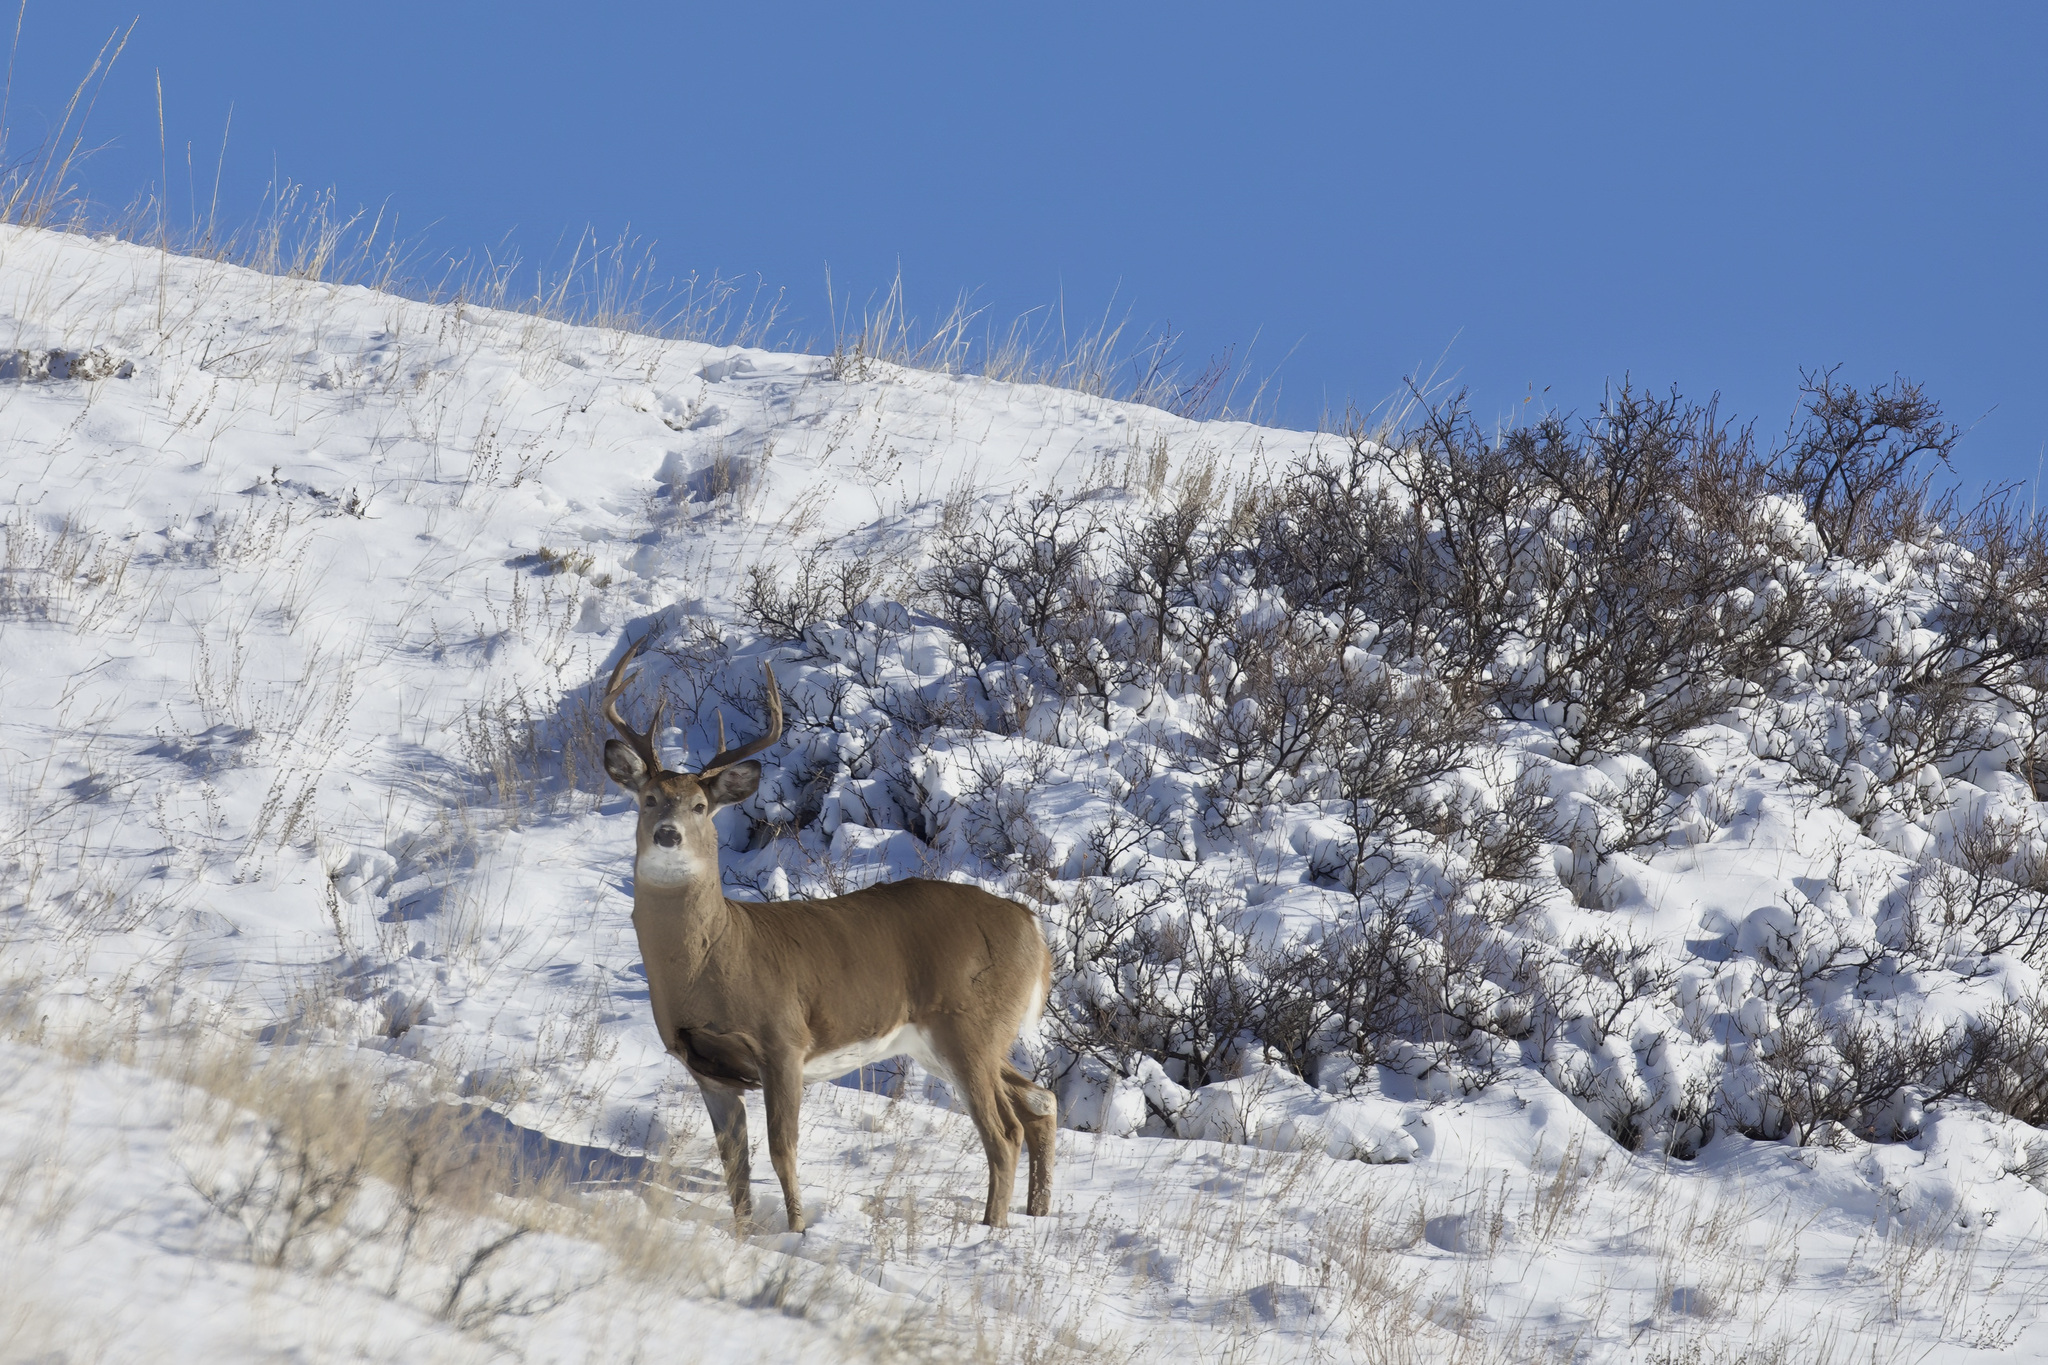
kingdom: Animalia
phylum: Chordata
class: Mammalia
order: Artiodactyla
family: Cervidae
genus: Odocoileus
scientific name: Odocoileus virginianus
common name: White-tailed deer
